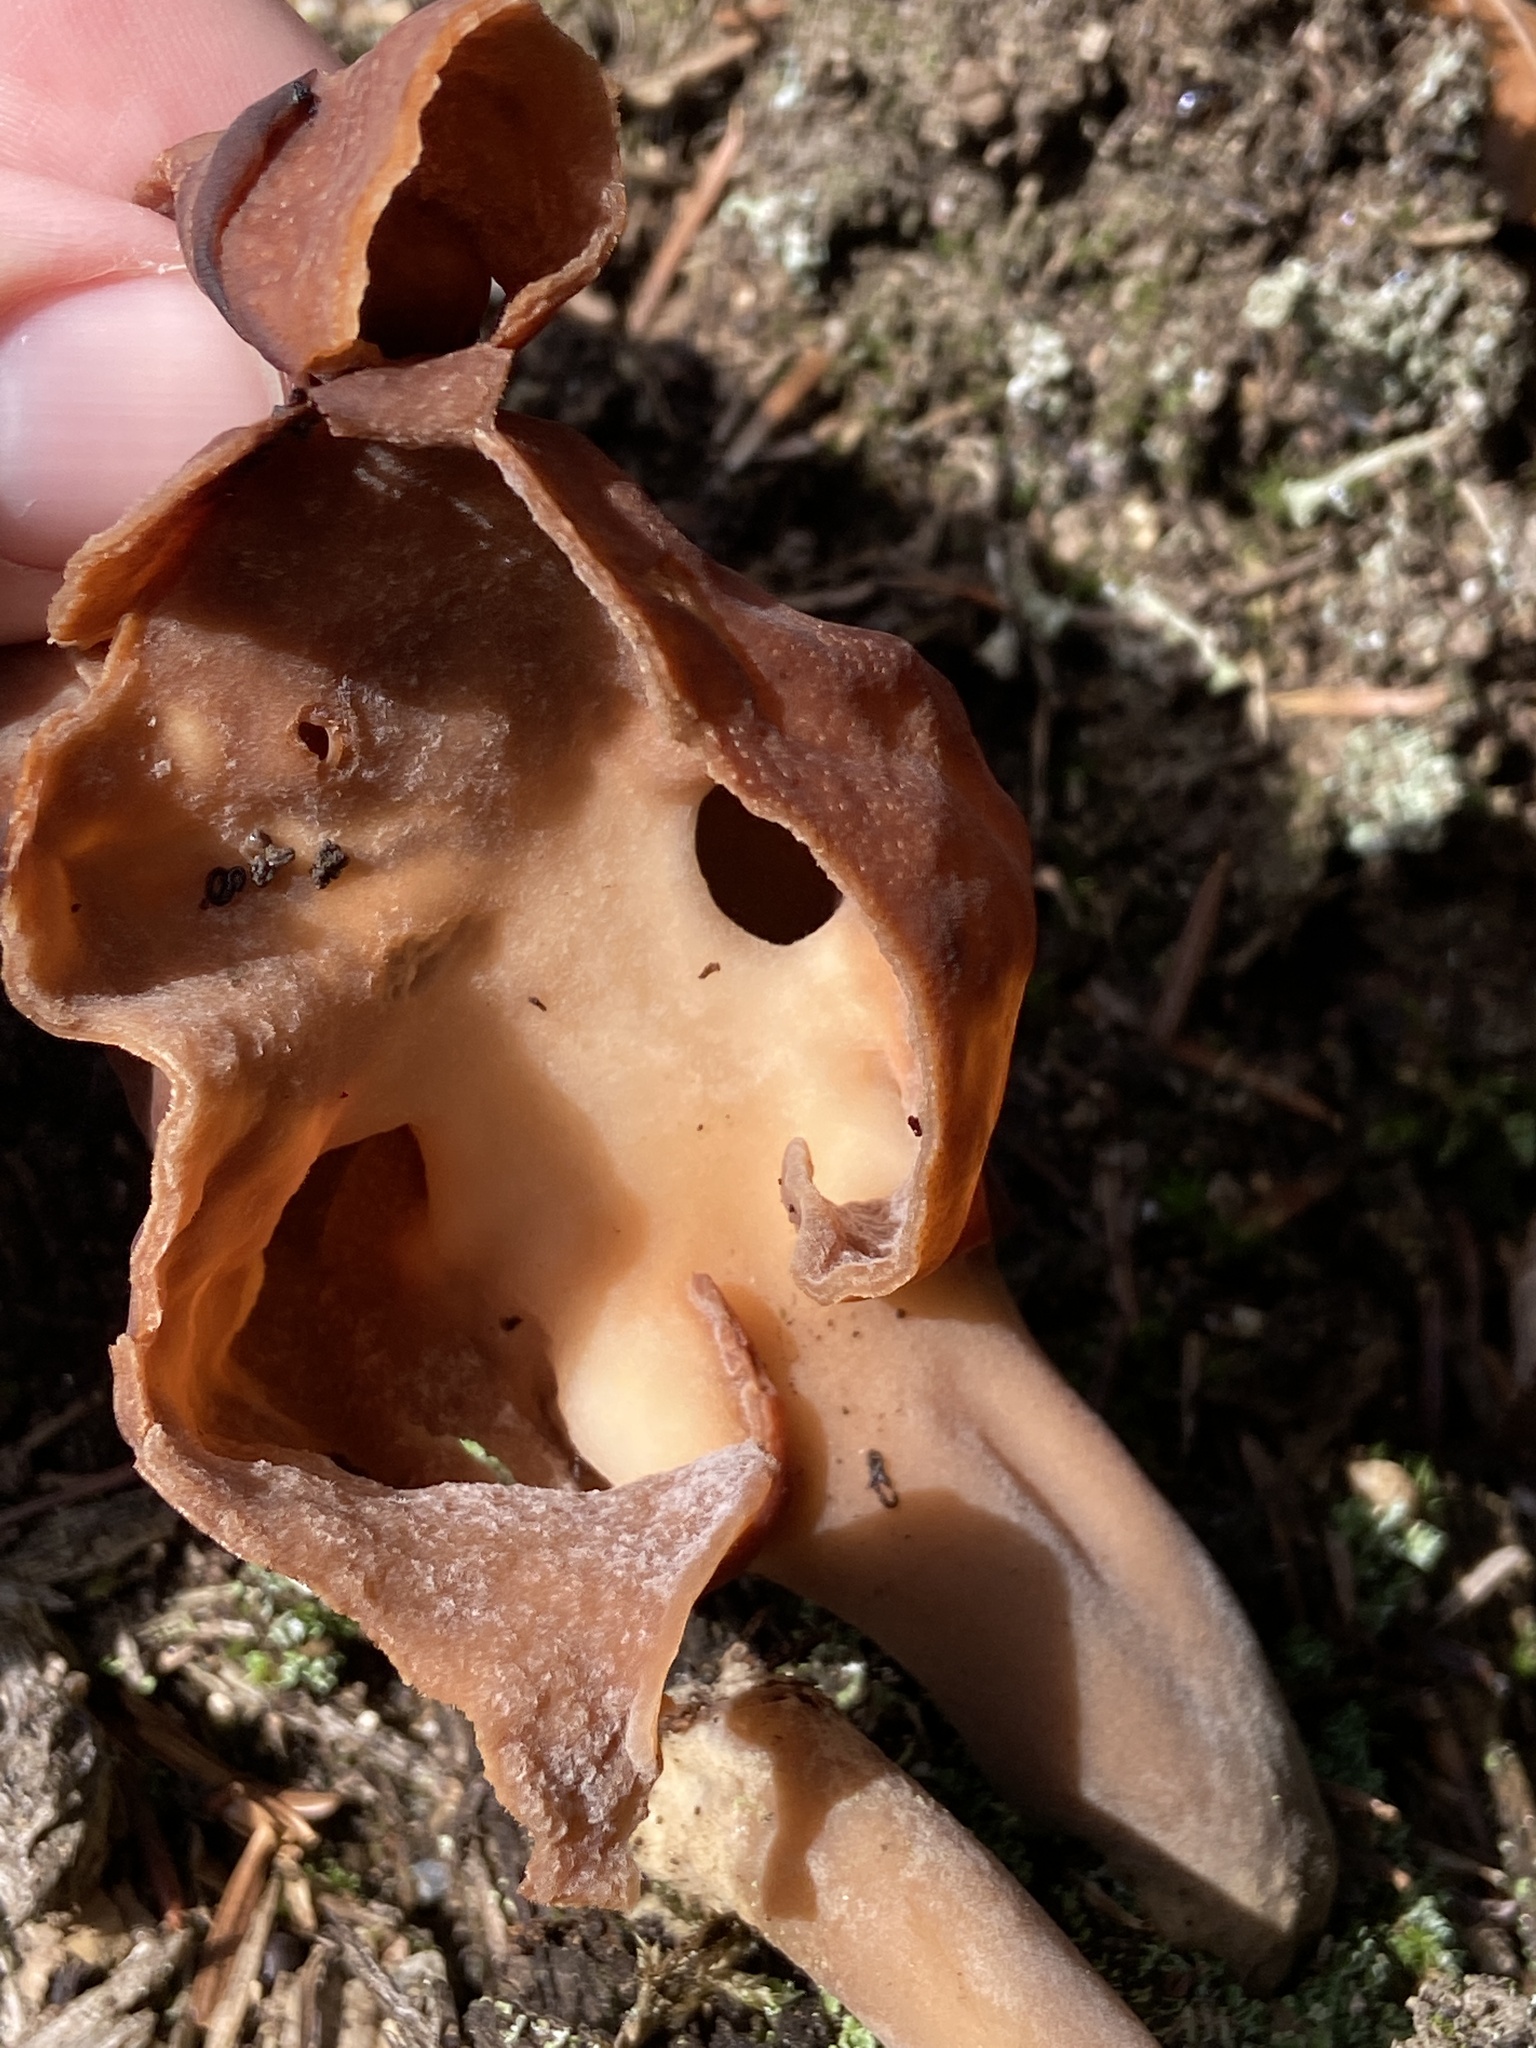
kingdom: Fungi
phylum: Ascomycota
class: Pezizomycetes
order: Pezizales
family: Discinaceae
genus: Gyromitra
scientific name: Gyromitra infula
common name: Pouched false morel
